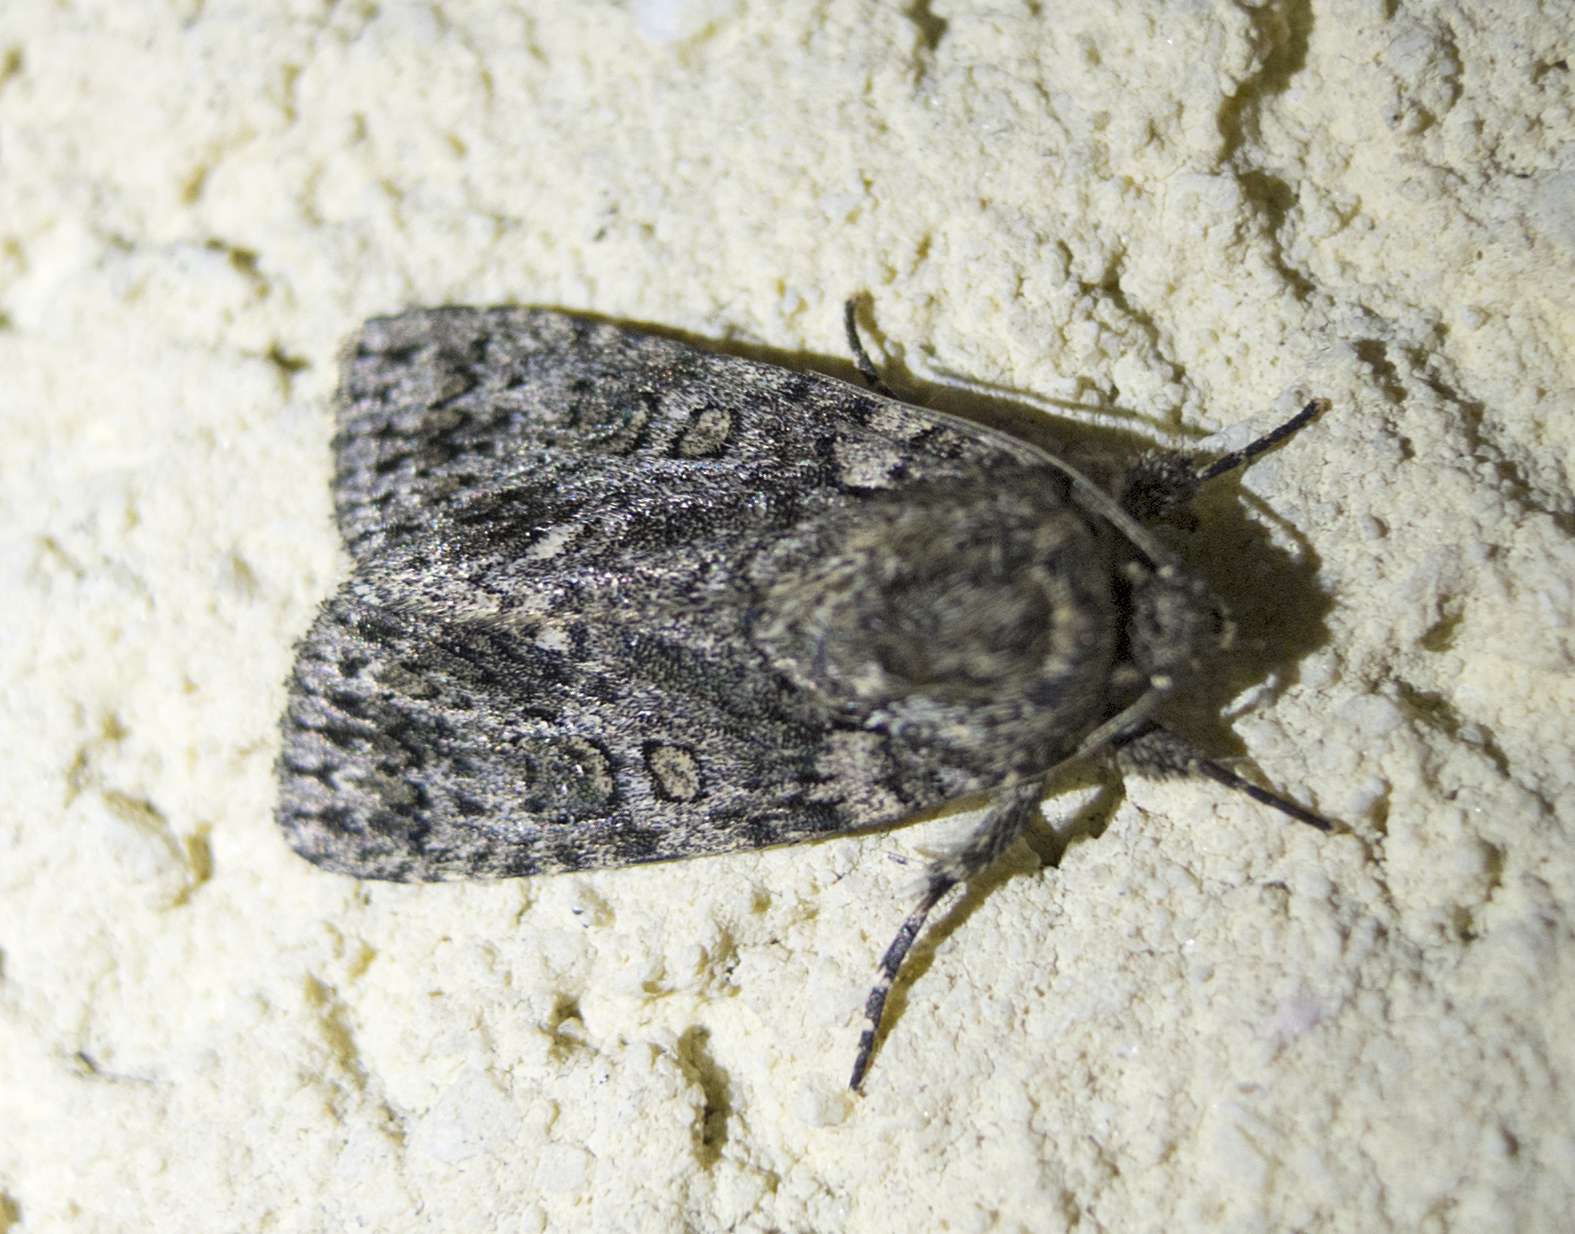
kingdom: Animalia
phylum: Arthropoda
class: Insecta
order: Lepidoptera
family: Noctuidae
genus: Acronicta
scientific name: Acronicta rumicis
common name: Knot grass
